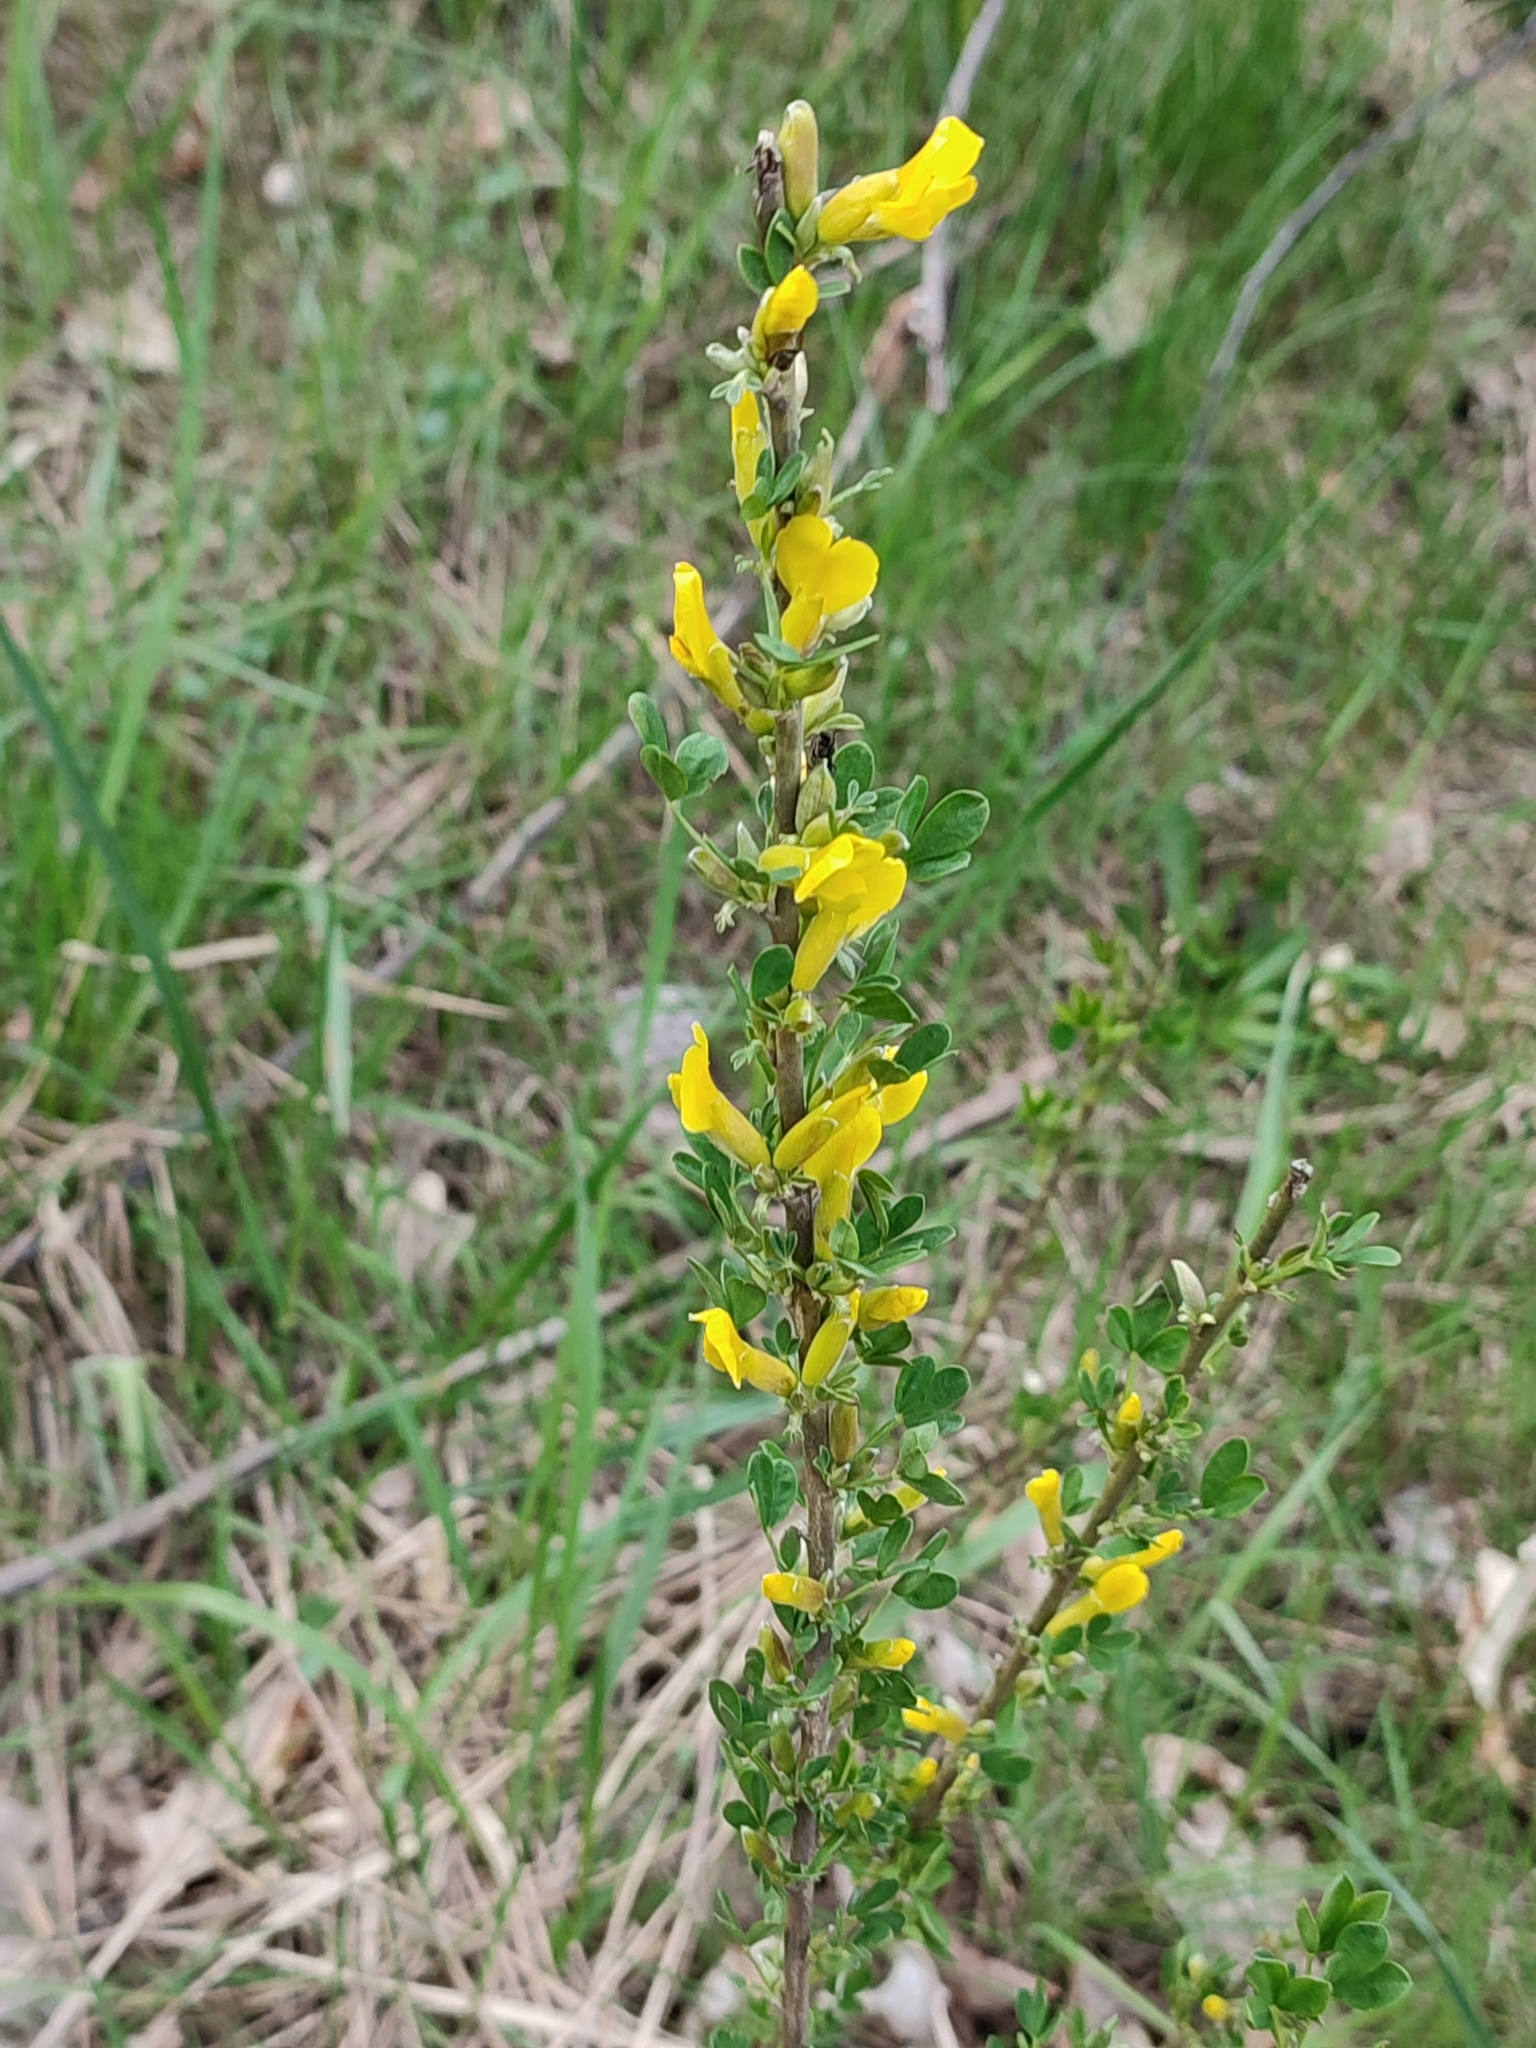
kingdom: Plantae
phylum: Tracheophyta
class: Magnoliopsida
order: Fabales
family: Fabaceae
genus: Chamaecytisus
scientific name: Chamaecytisus ruthenicus
